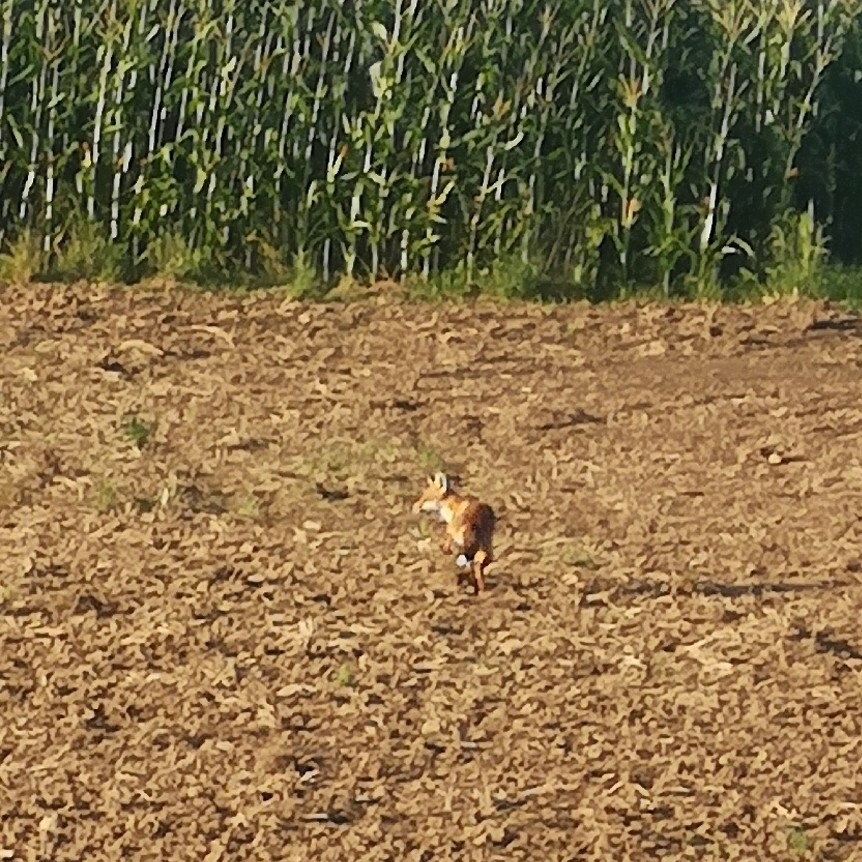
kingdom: Animalia
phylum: Chordata
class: Mammalia
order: Carnivora
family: Canidae
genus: Vulpes
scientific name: Vulpes vulpes
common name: Red fox
